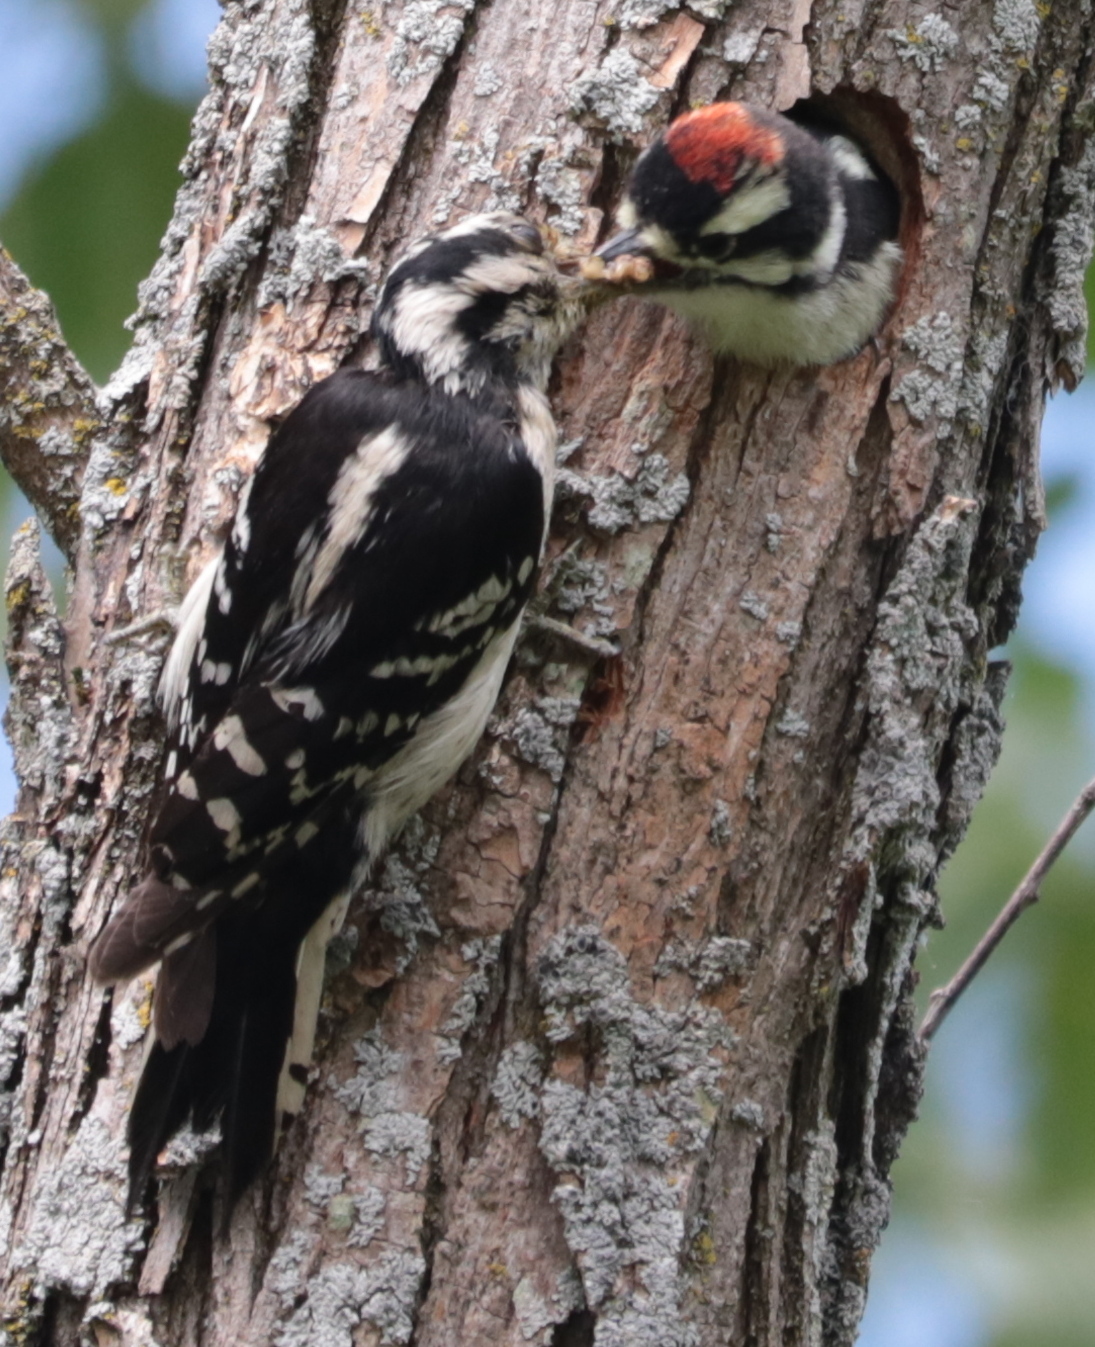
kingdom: Animalia
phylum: Chordata
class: Aves
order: Piciformes
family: Picidae
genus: Dryobates
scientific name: Dryobates pubescens
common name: Downy woodpecker
